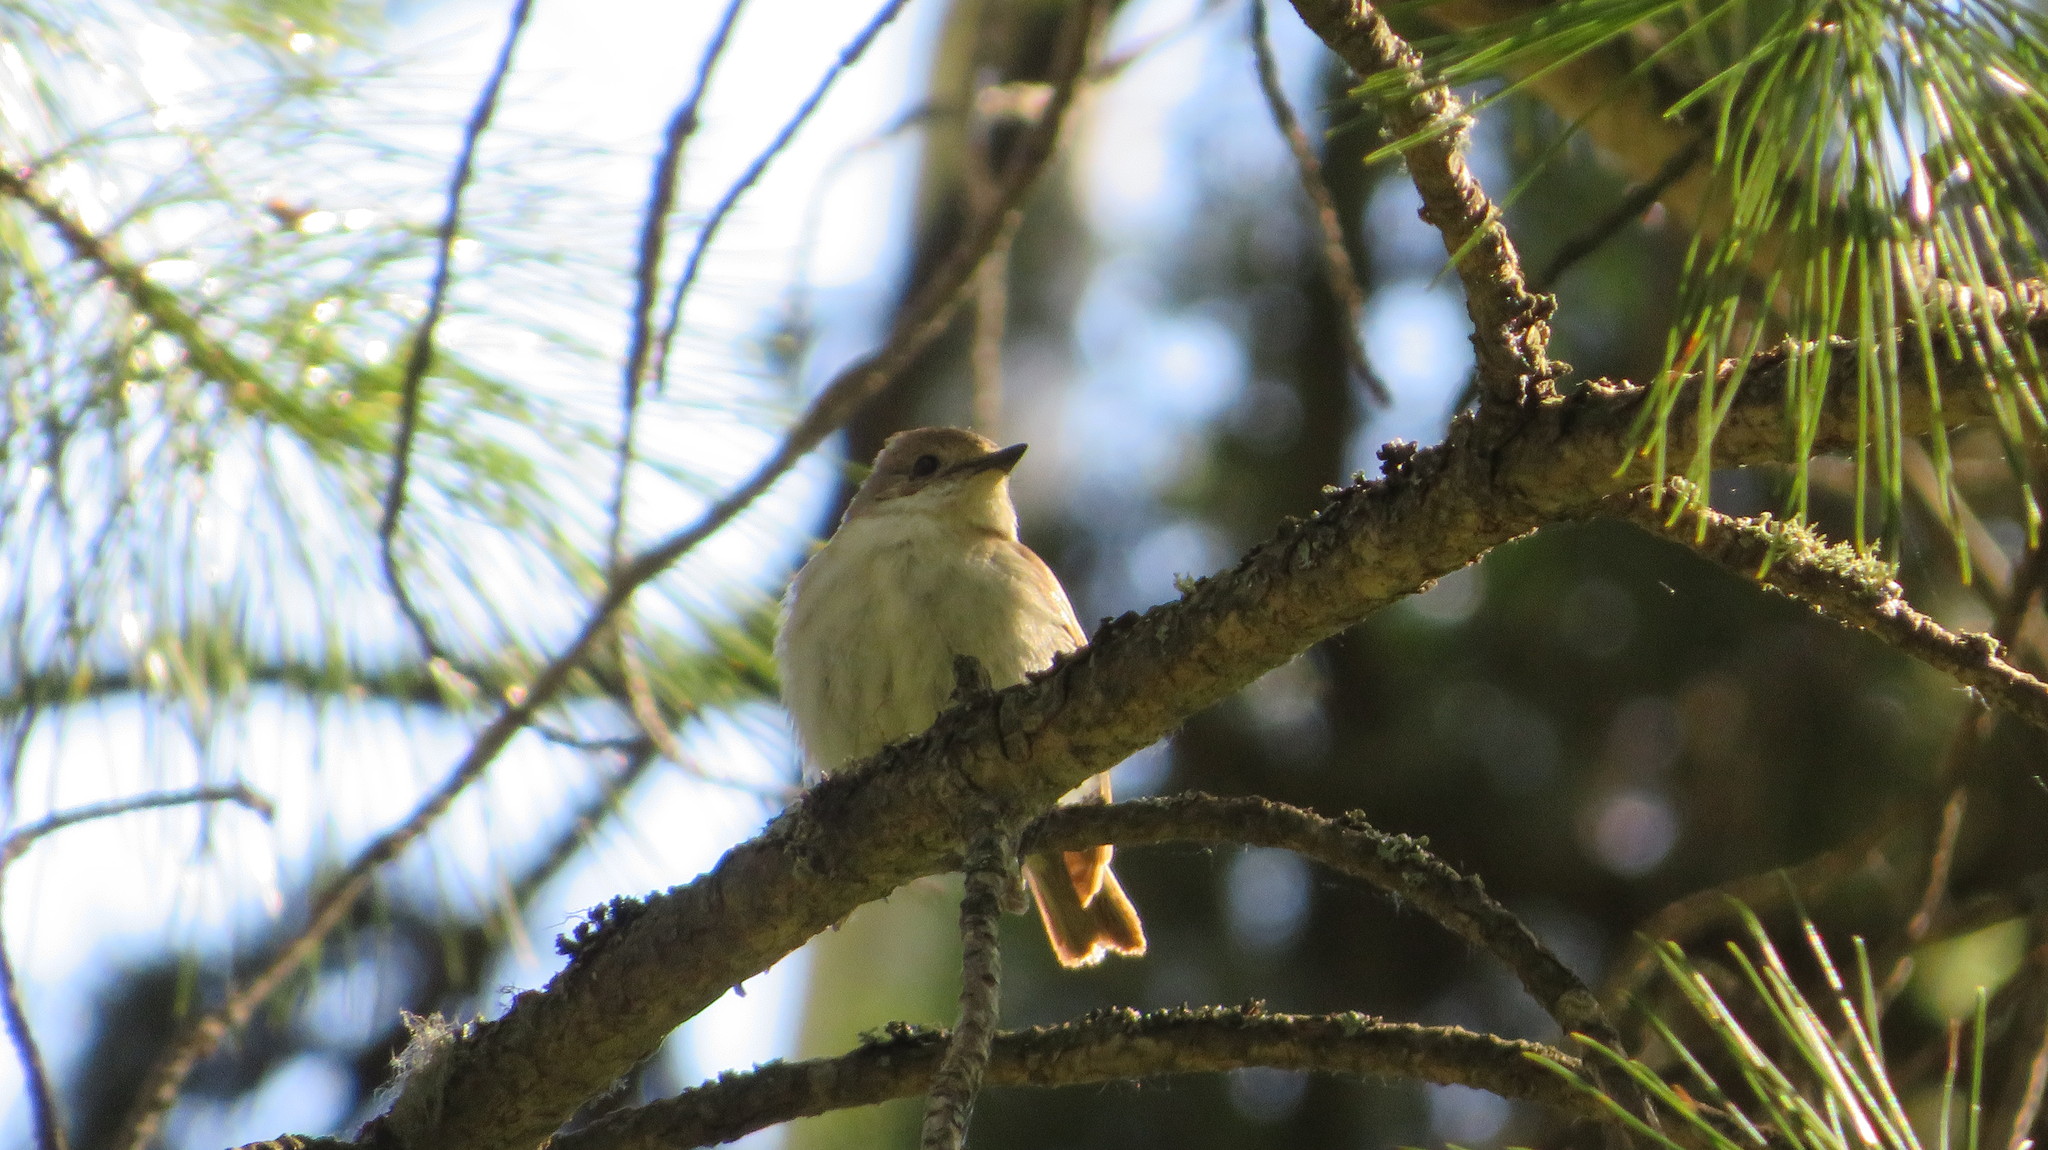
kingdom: Animalia
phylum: Chordata
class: Aves
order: Passeriformes
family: Muscicapidae
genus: Ficedula
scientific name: Ficedula hypoleuca
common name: European pied flycatcher
